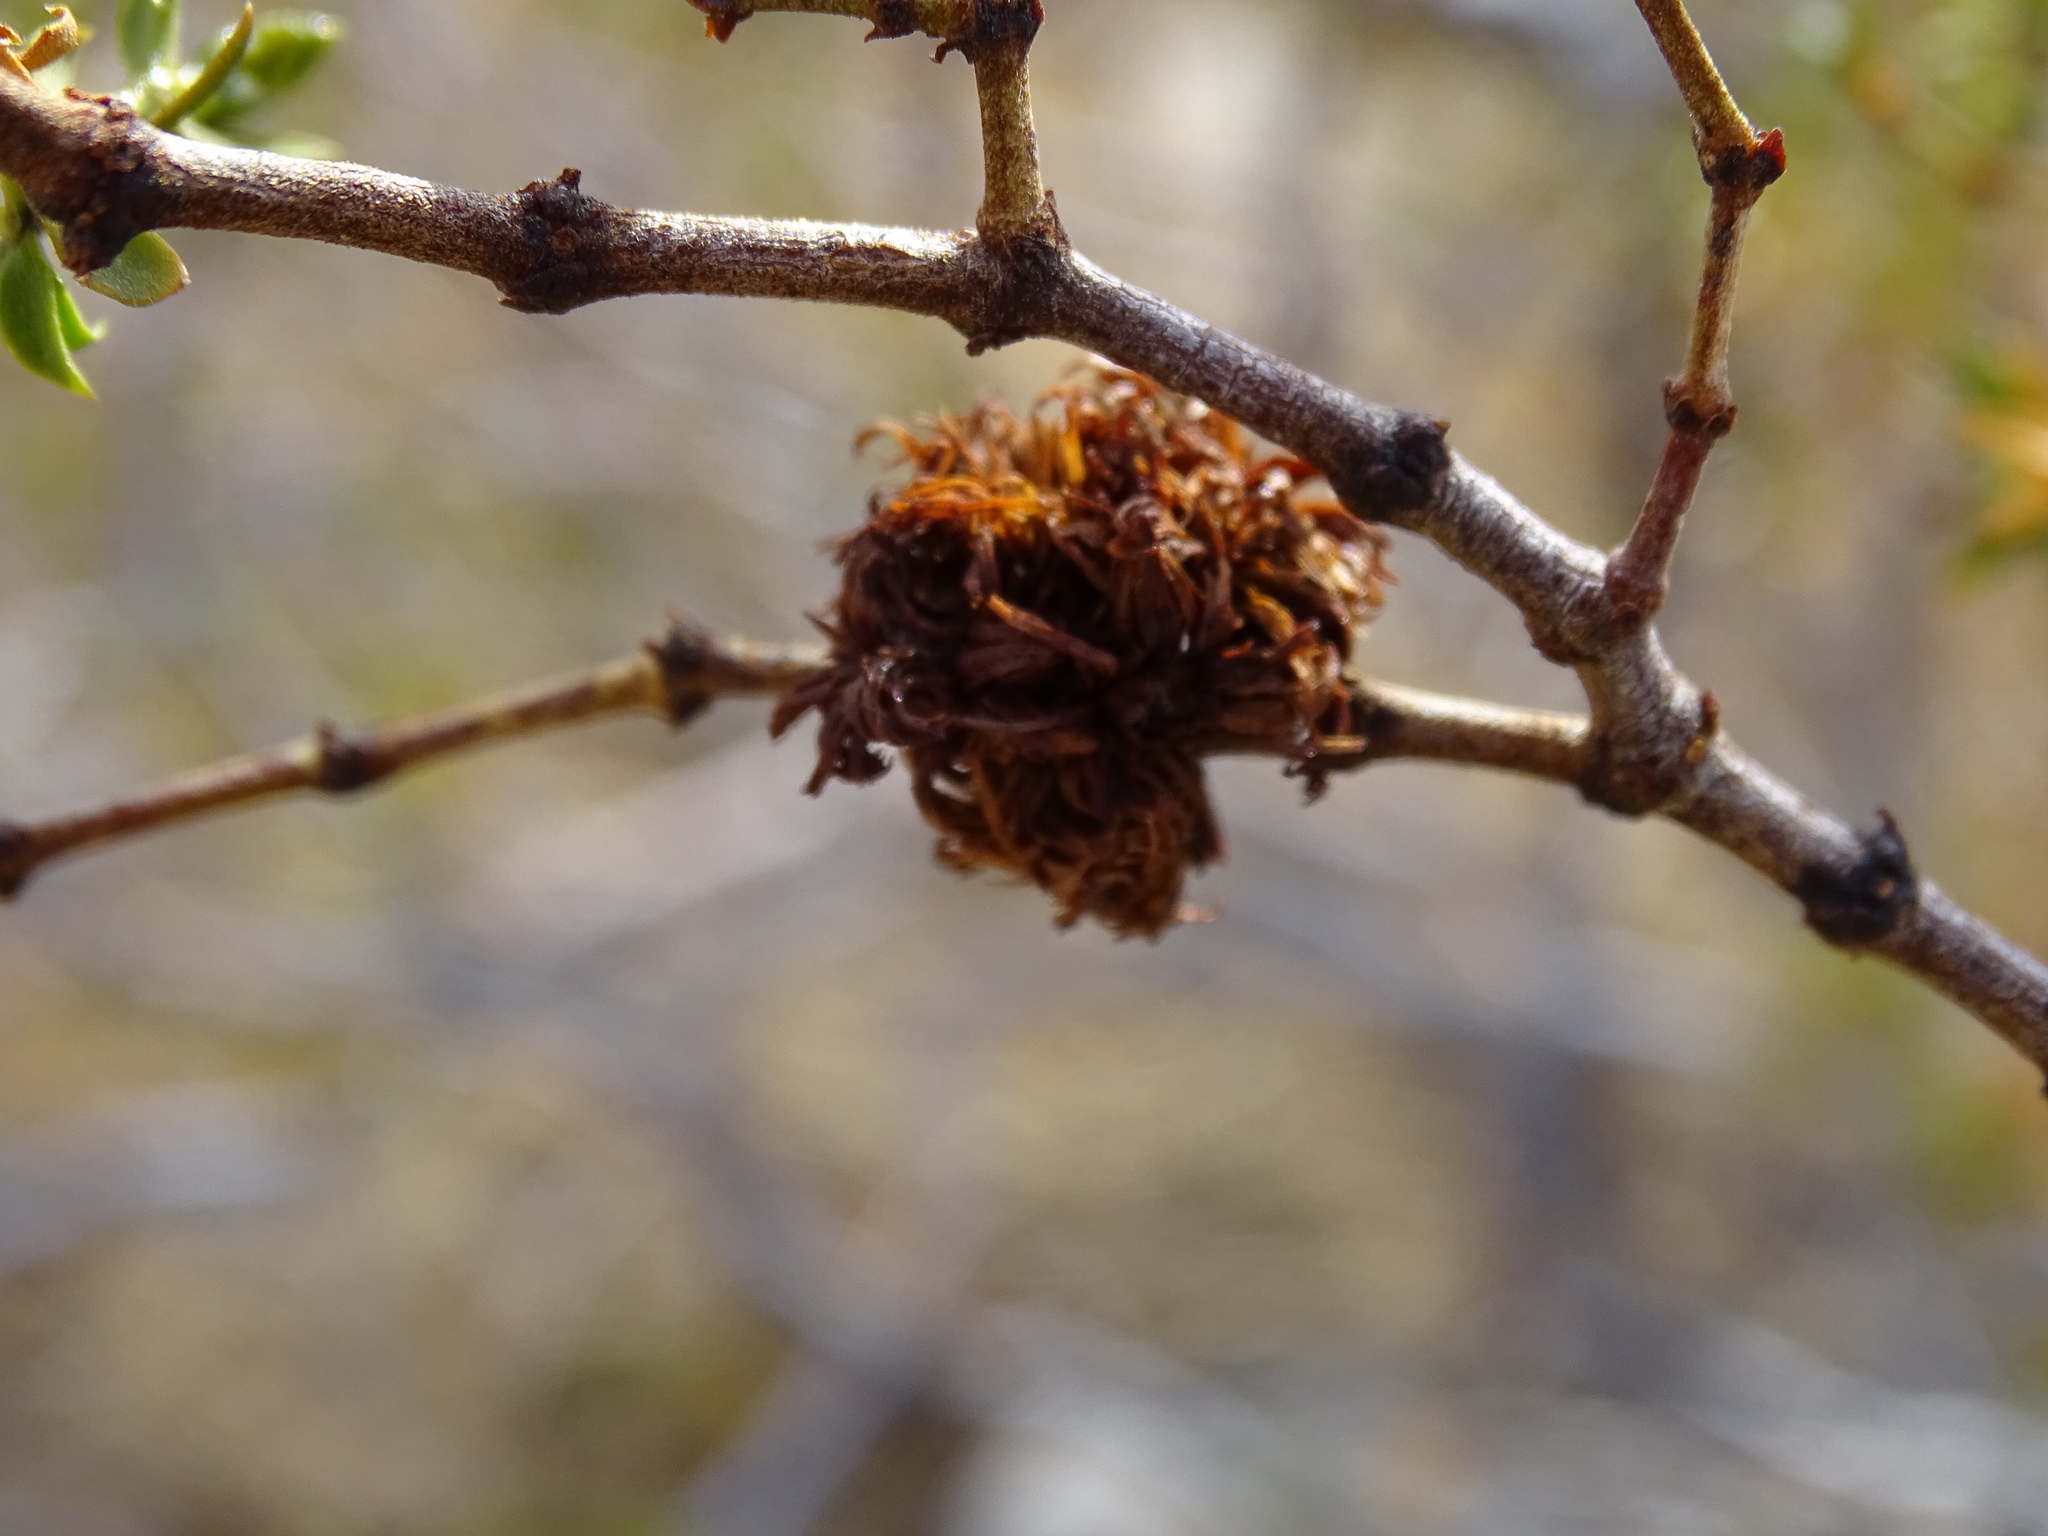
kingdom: Plantae
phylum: Tracheophyta
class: Magnoliopsida
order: Zygophyllales
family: Zygophyllaceae
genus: Larrea
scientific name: Larrea tridentata
